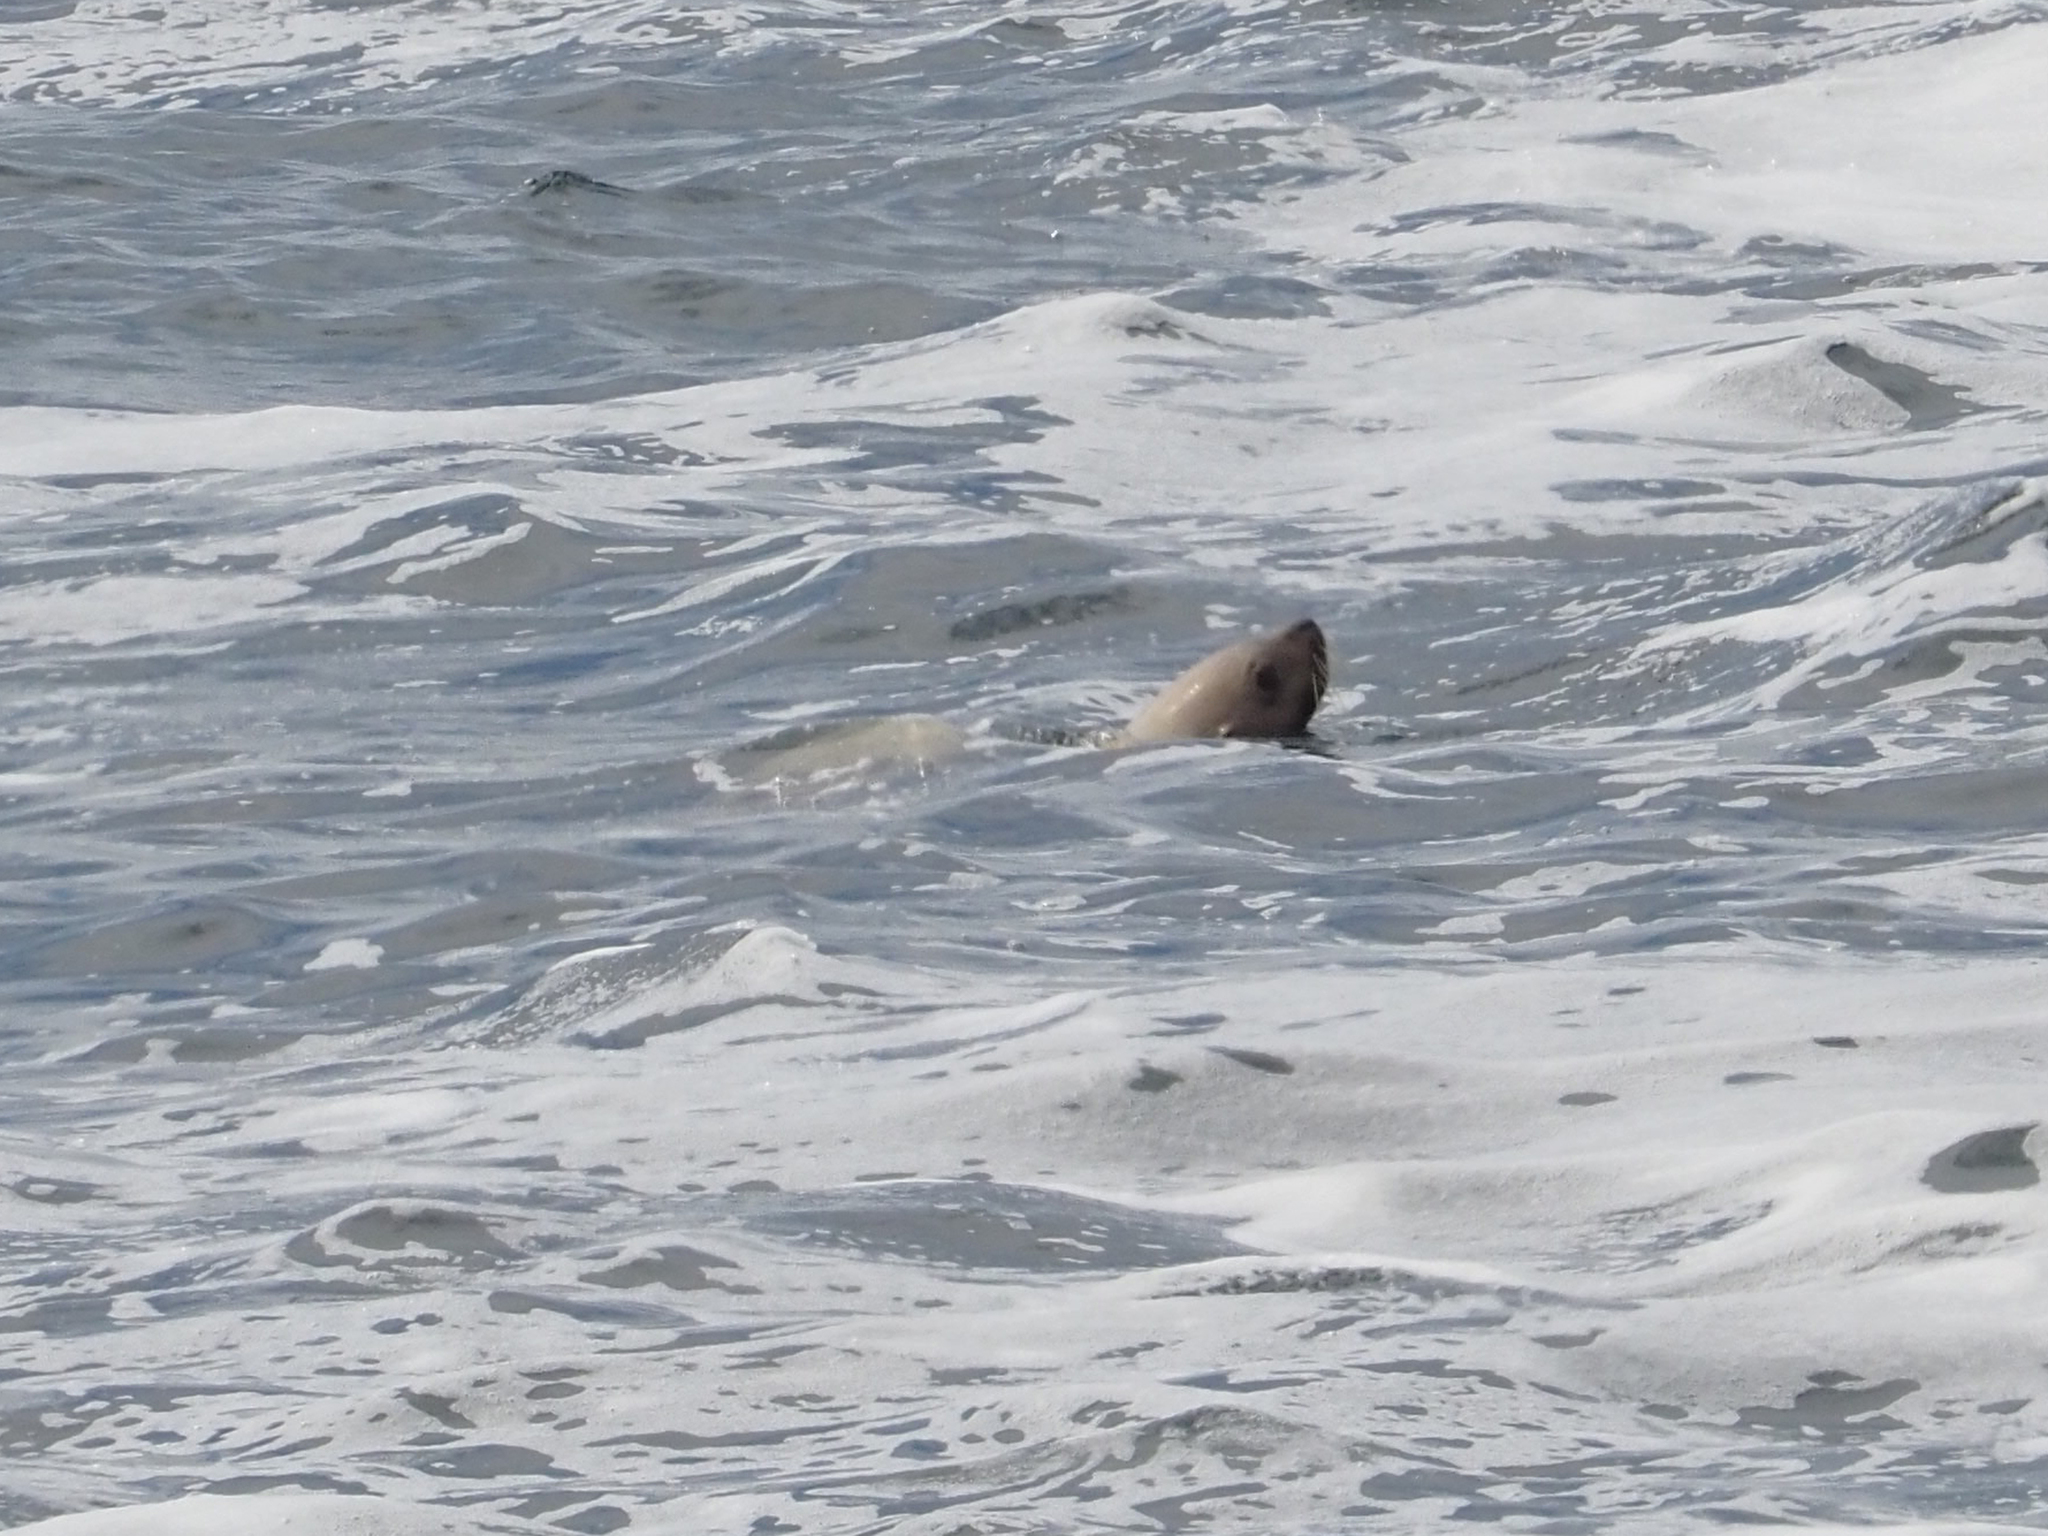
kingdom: Animalia
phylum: Chordata
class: Mammalia
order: Carnivora
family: Otariidae
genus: Eumetopias
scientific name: Eumetopias jubatus
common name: Steller sea lion
